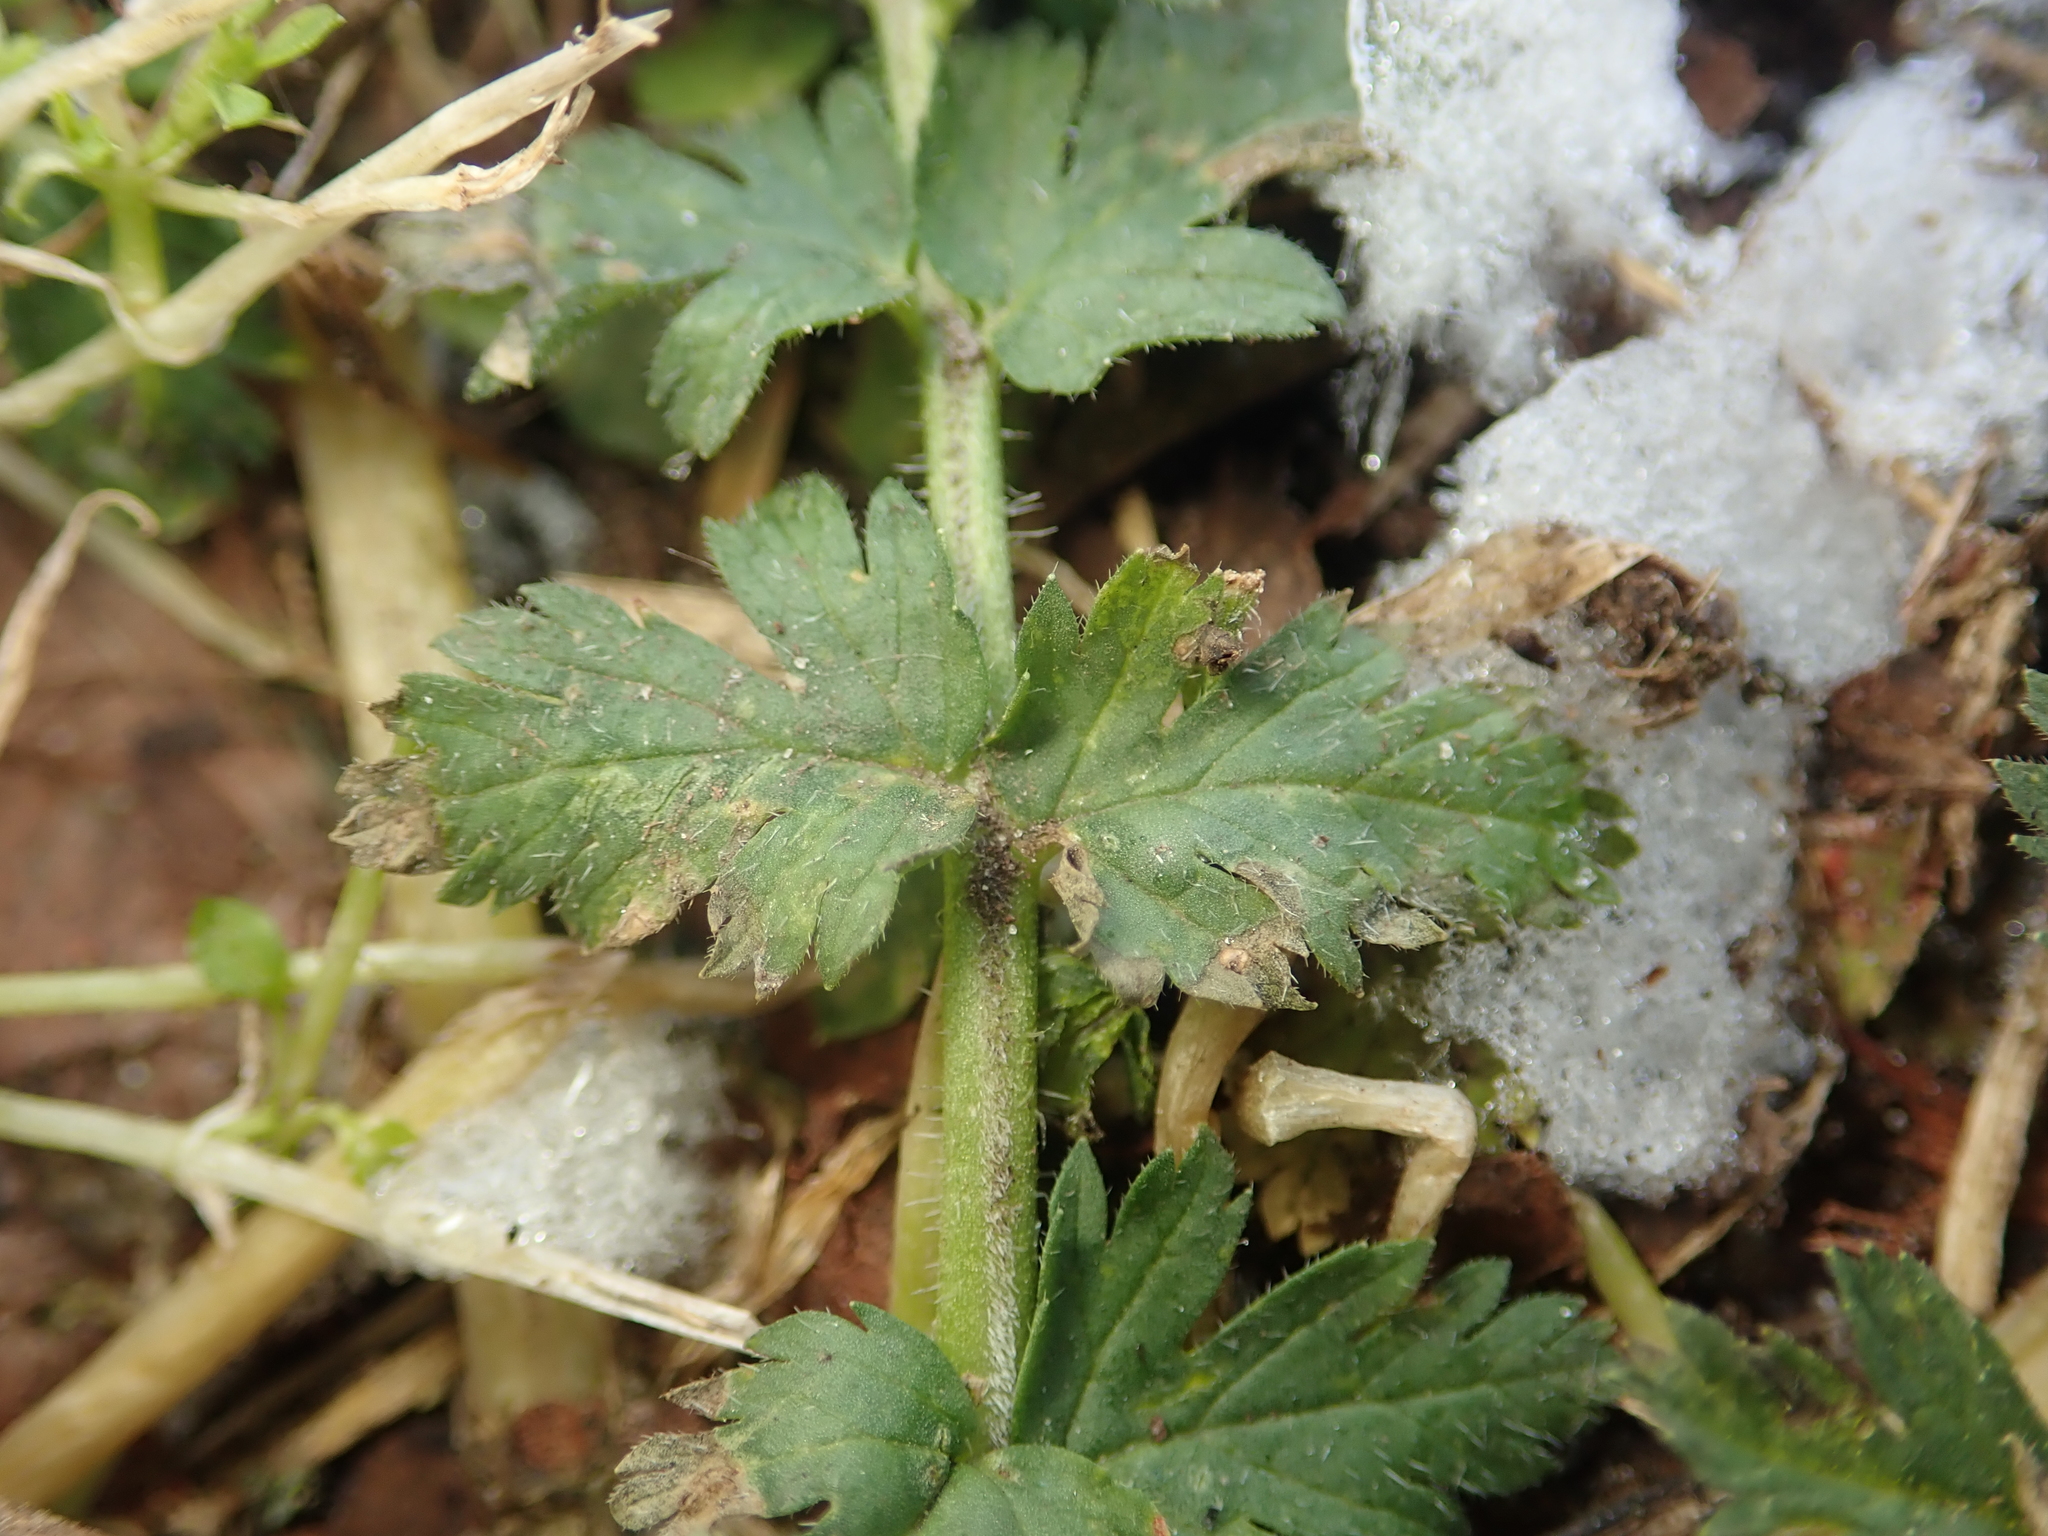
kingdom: Plantae
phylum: Tracheophyta
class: Magnoliopsida
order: Geraniales
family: Geraniaceae
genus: Erodium
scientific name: Erodium cicutarium
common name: Common stork's-bill
